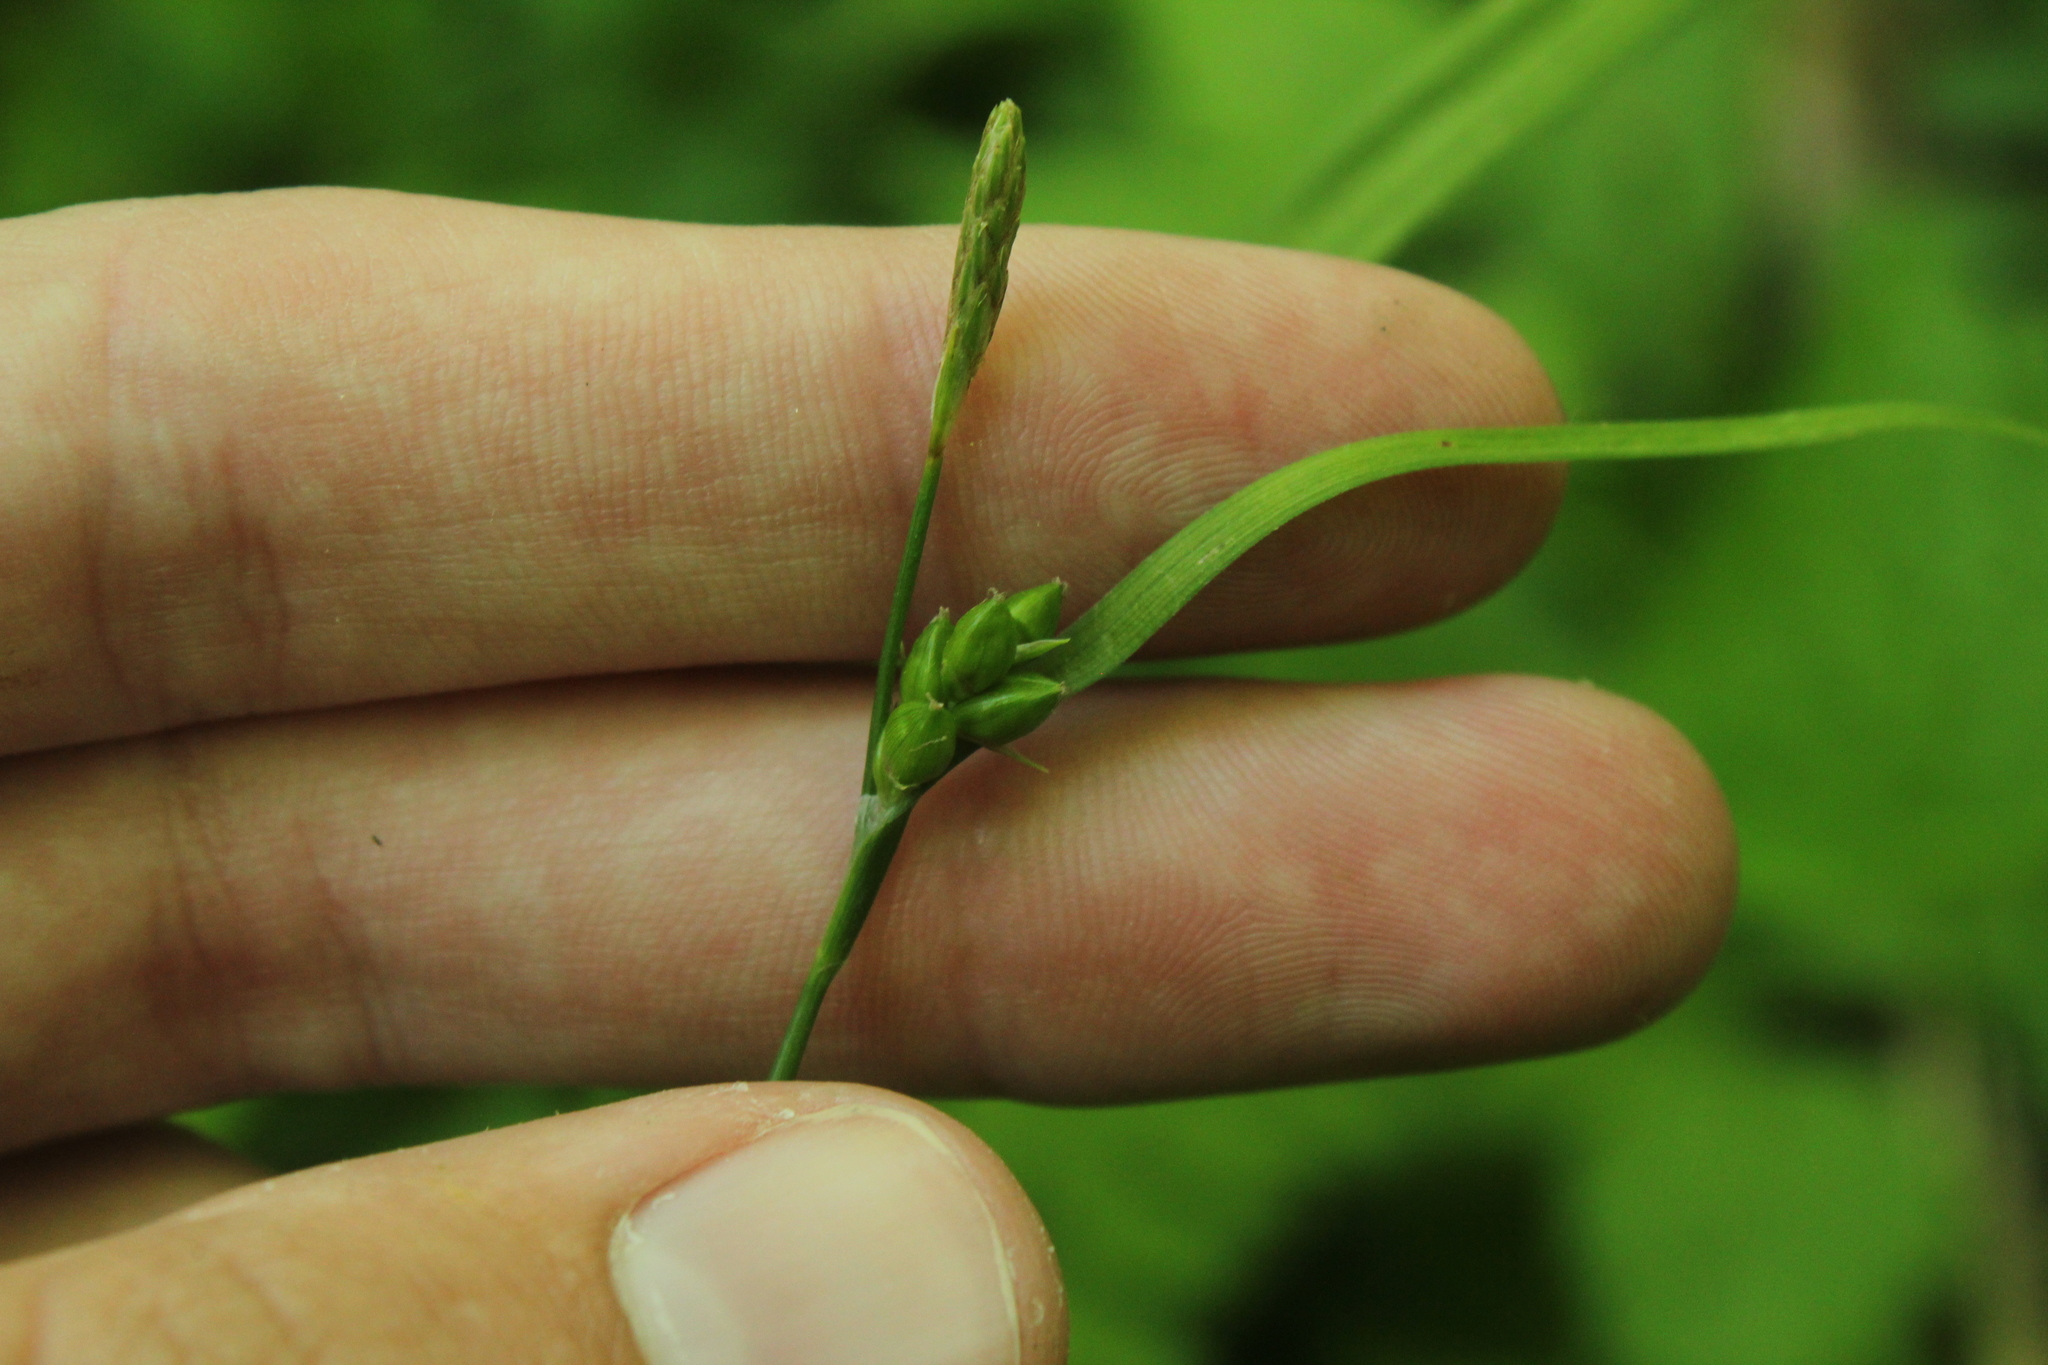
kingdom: Plantae
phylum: Tracheophyta
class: Liliopsida
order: Poales
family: Cyperaceae
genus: Carex
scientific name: Carex grisea
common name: Eastern narrow-leaved sedge
